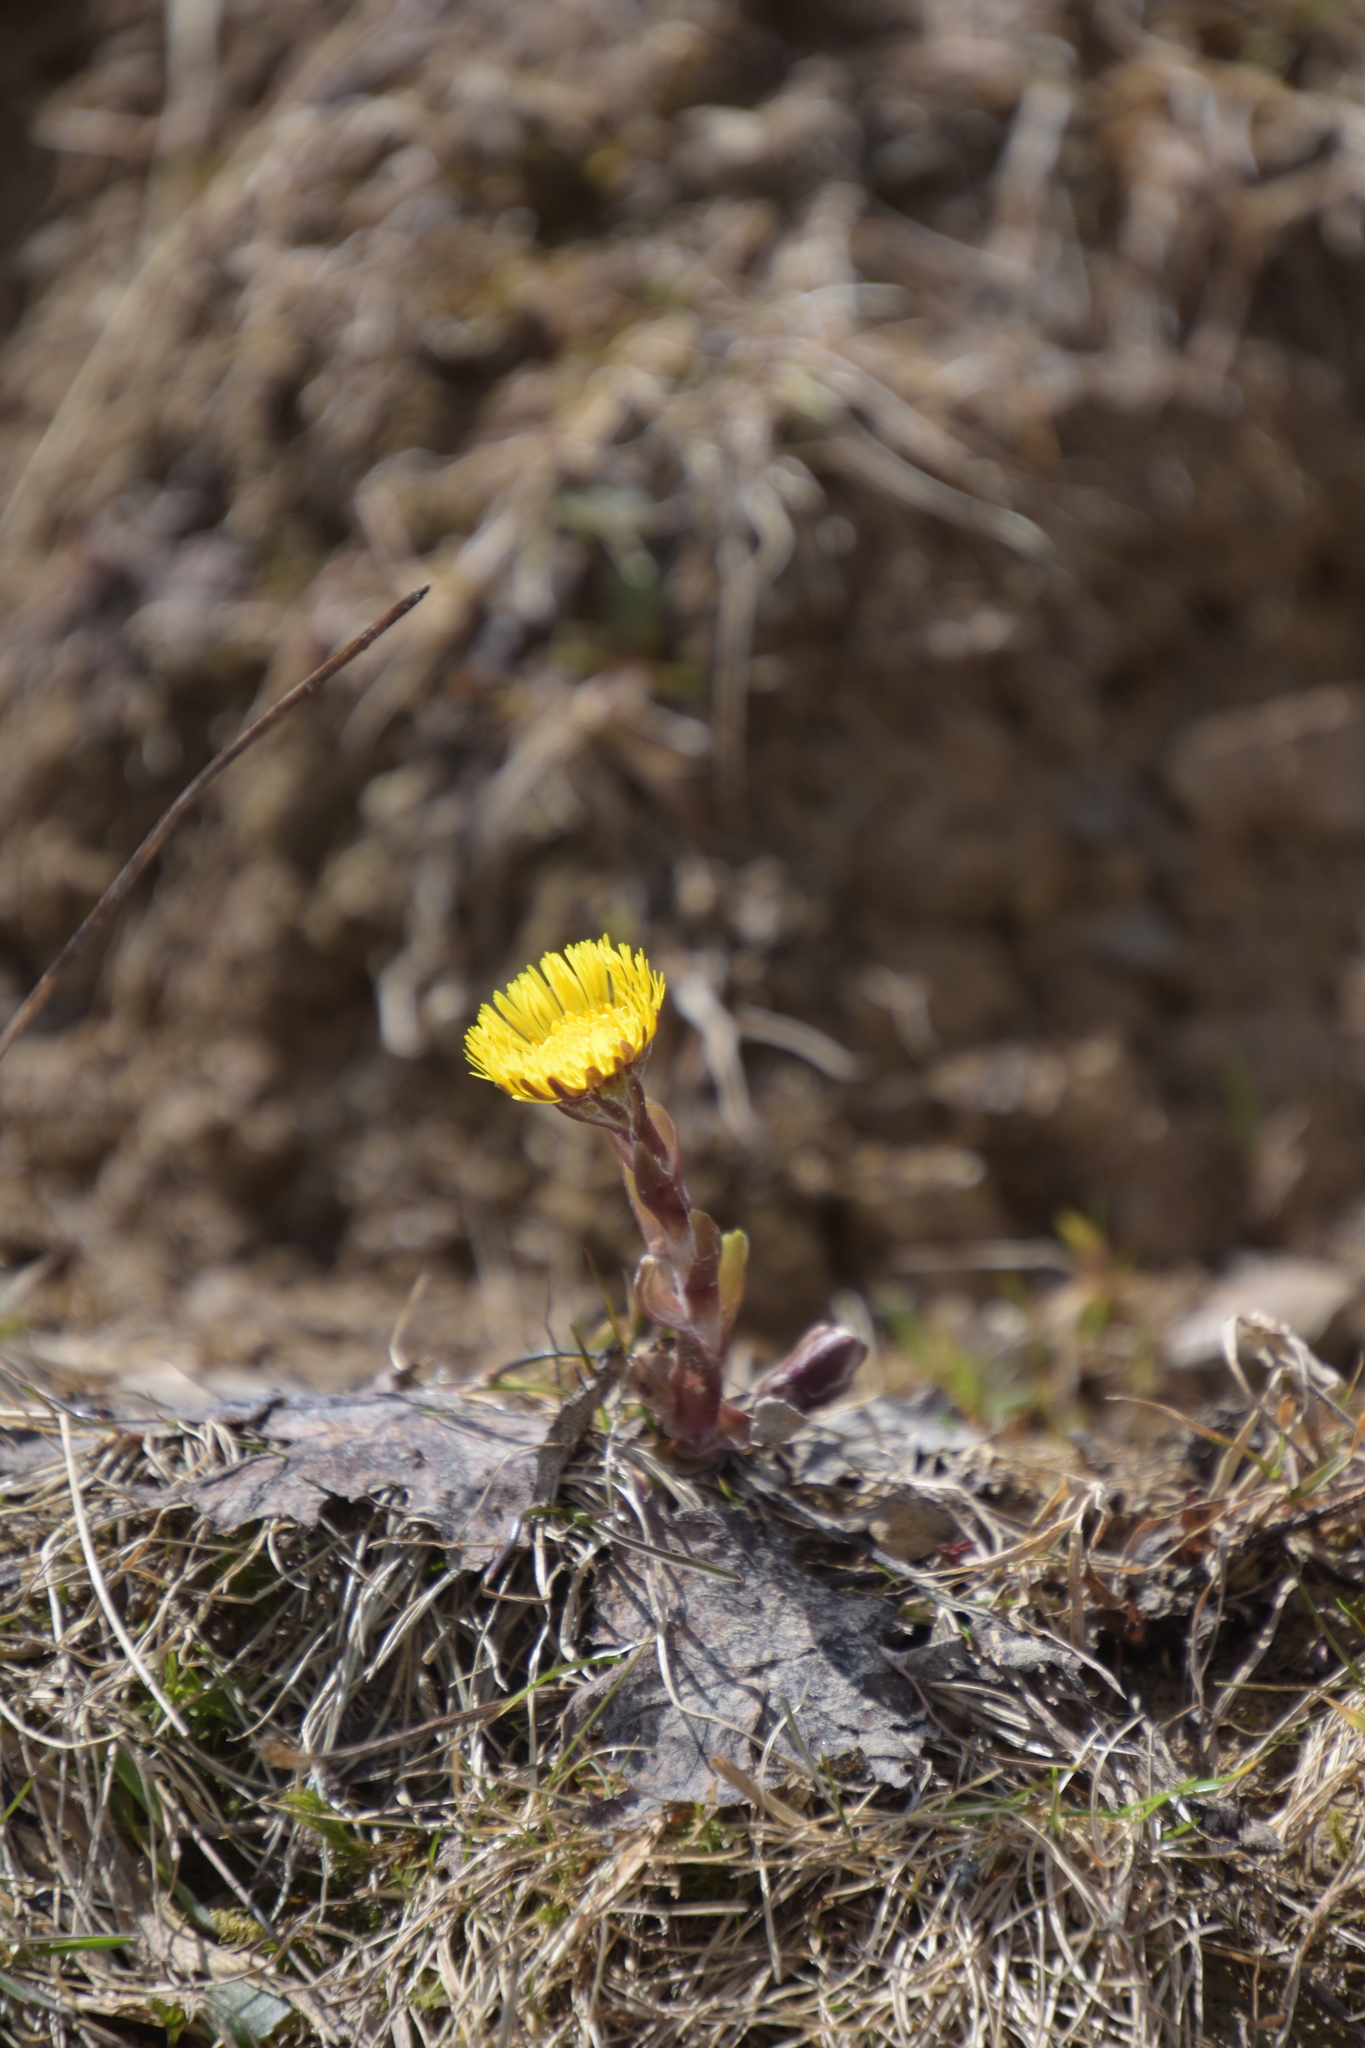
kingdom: Plantae
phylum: Tracheophyta
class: Magnoliopsida
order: Asterales
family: Asteraceae
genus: Tussilago
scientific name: Tussilago farfara
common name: Coltsfoot
